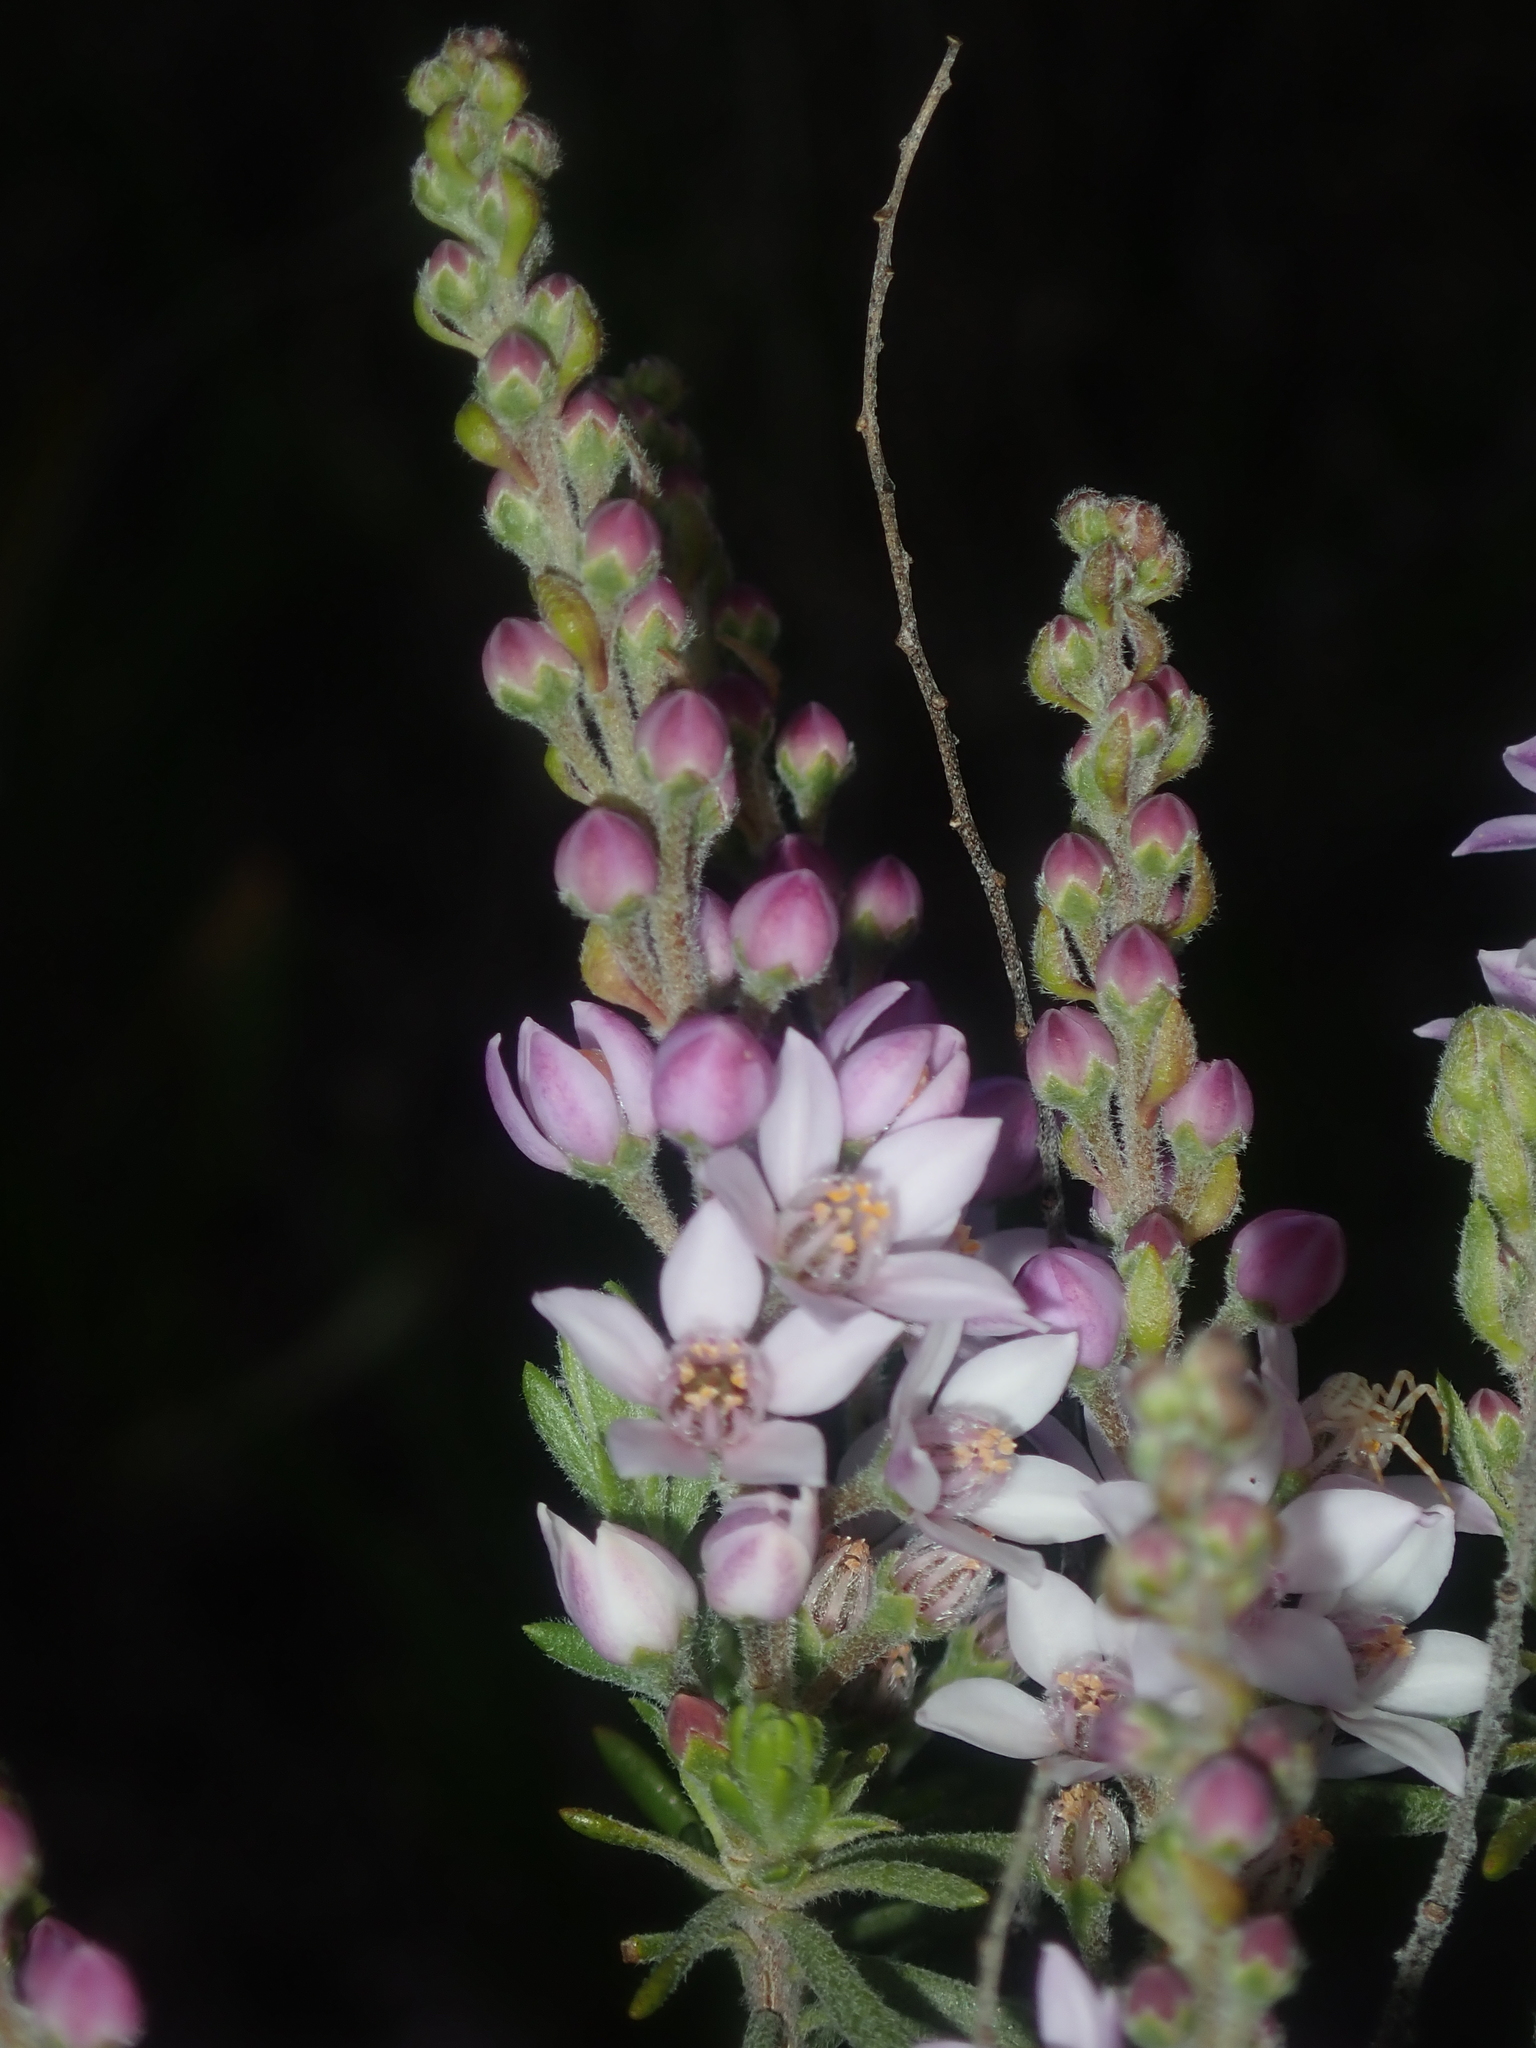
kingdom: Plantae
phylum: Tracheophyta
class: Magnoliopsida
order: Sapindales
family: Rutaceae
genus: Philotheca
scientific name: Philotheca spicata
